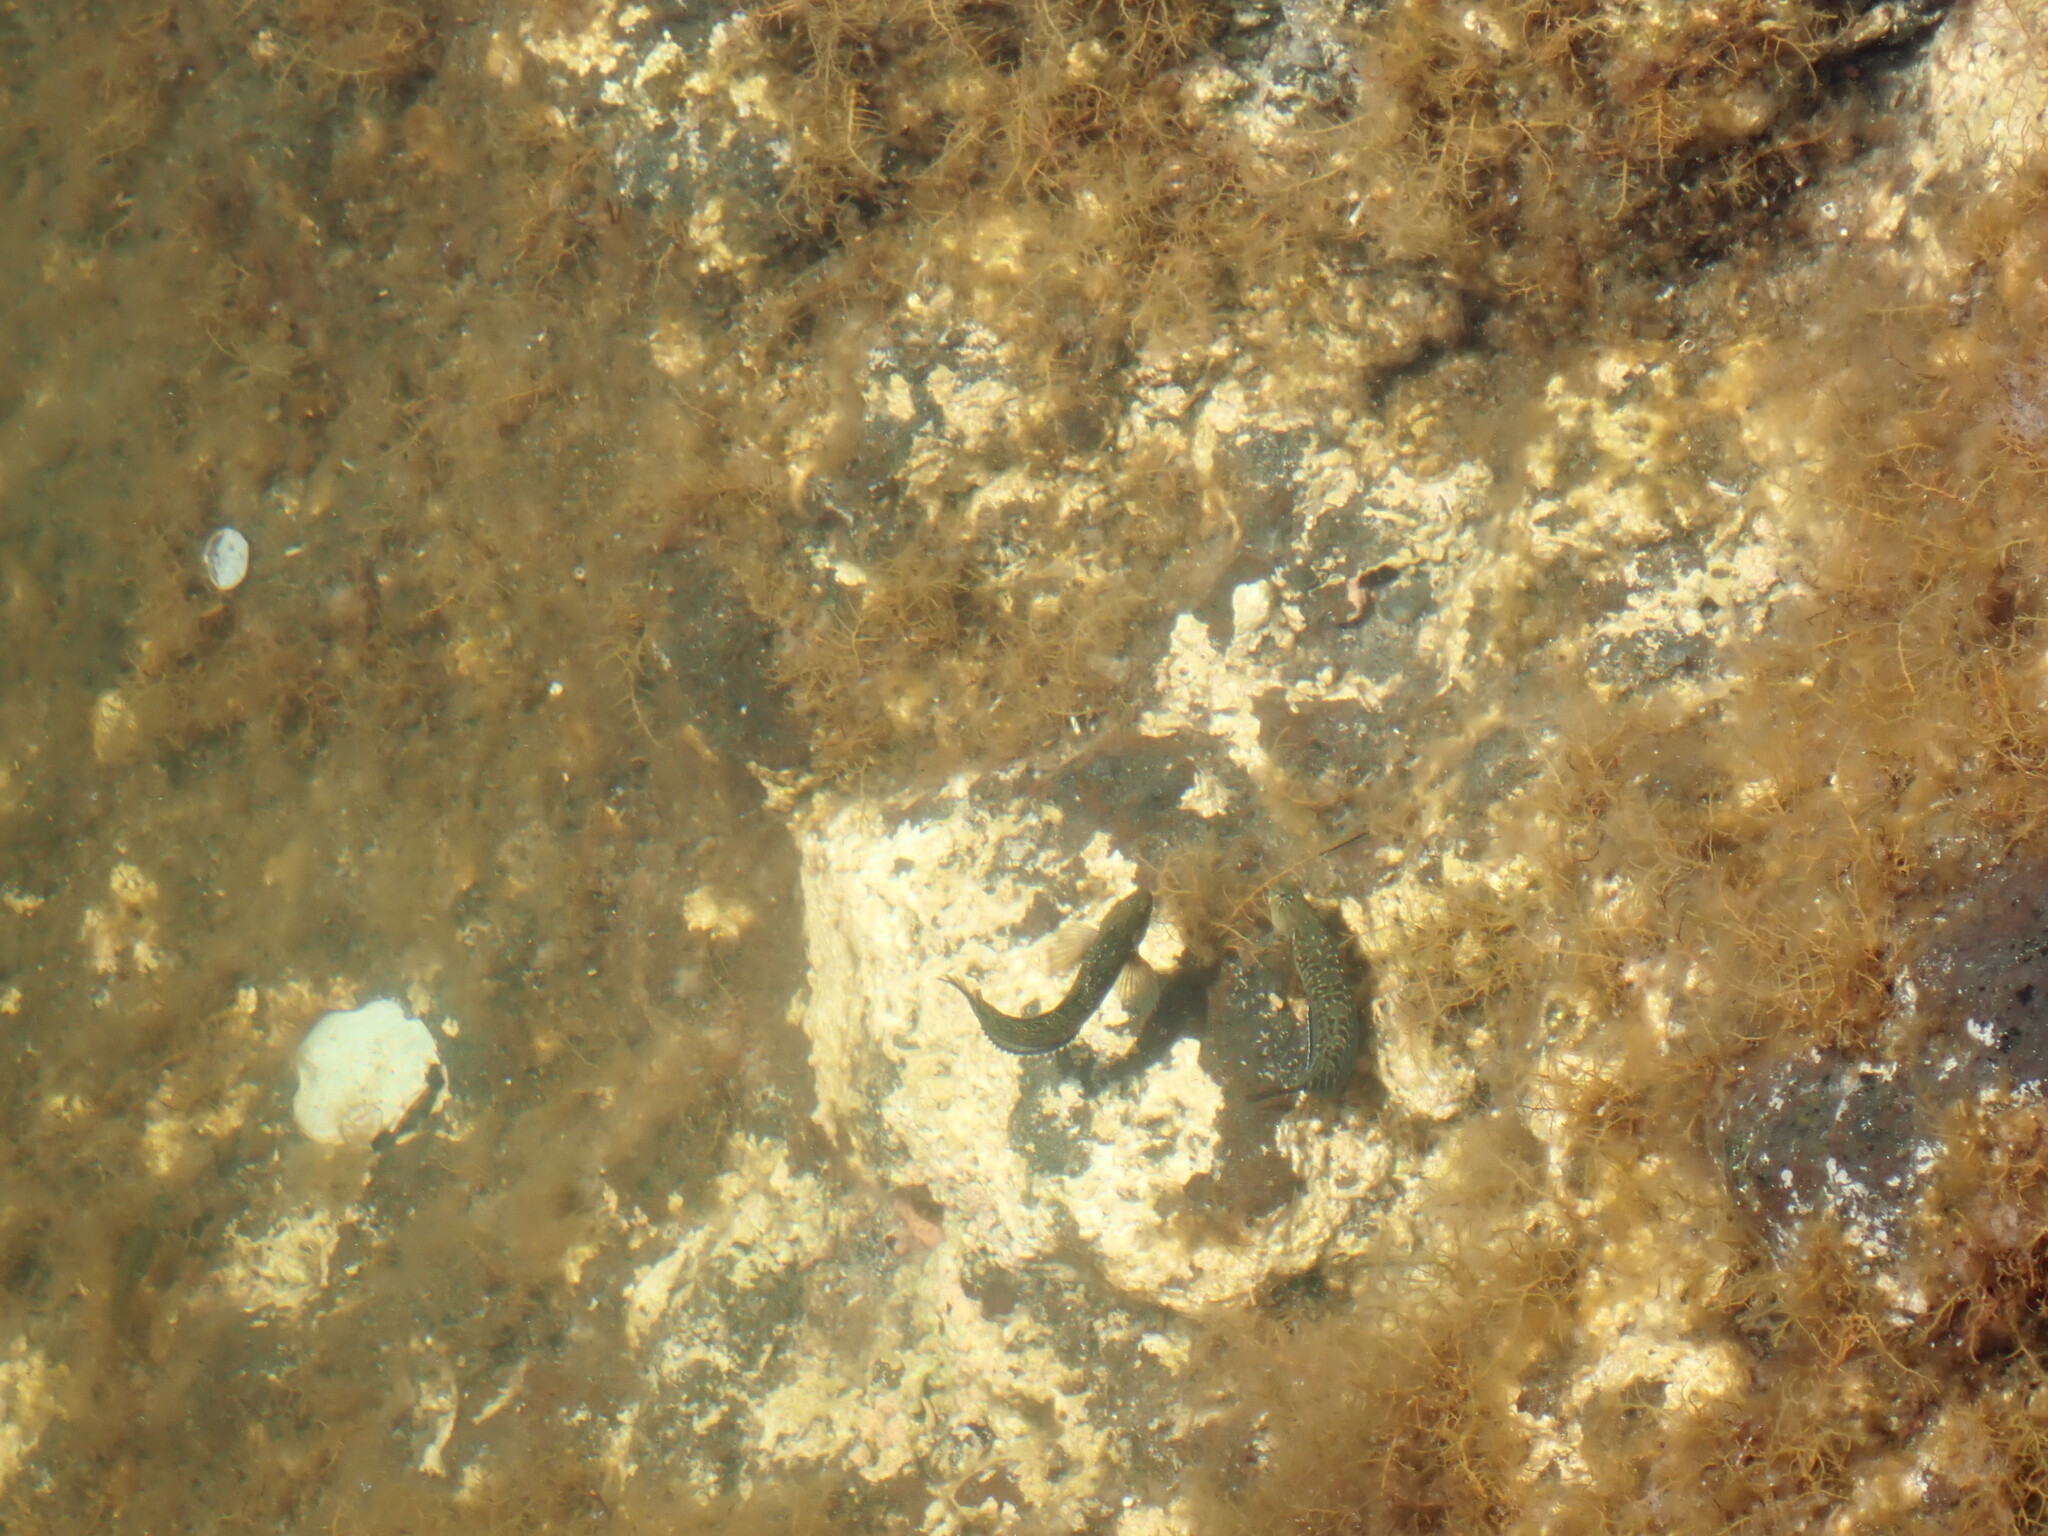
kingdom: Animalia
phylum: Chordata
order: Perciformes
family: Blenniidae
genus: Parablennius
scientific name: Parablennius parvicornis
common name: Rock-pool blenny
